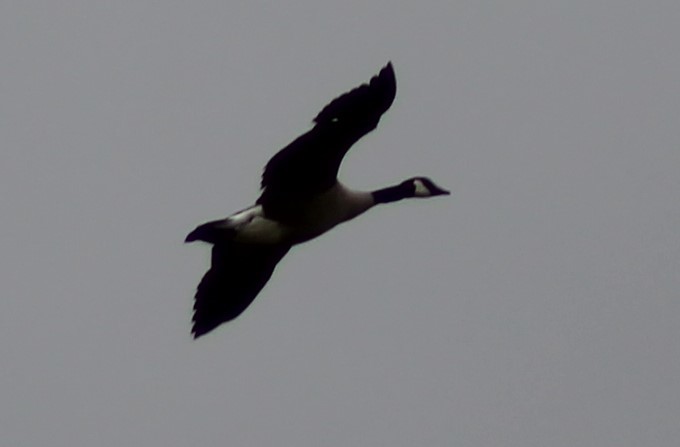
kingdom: Animalia
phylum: Chordata
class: Aves
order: Anseriformes
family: Anatidae
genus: Branta
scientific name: Branta canadensis
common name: Canada goose
